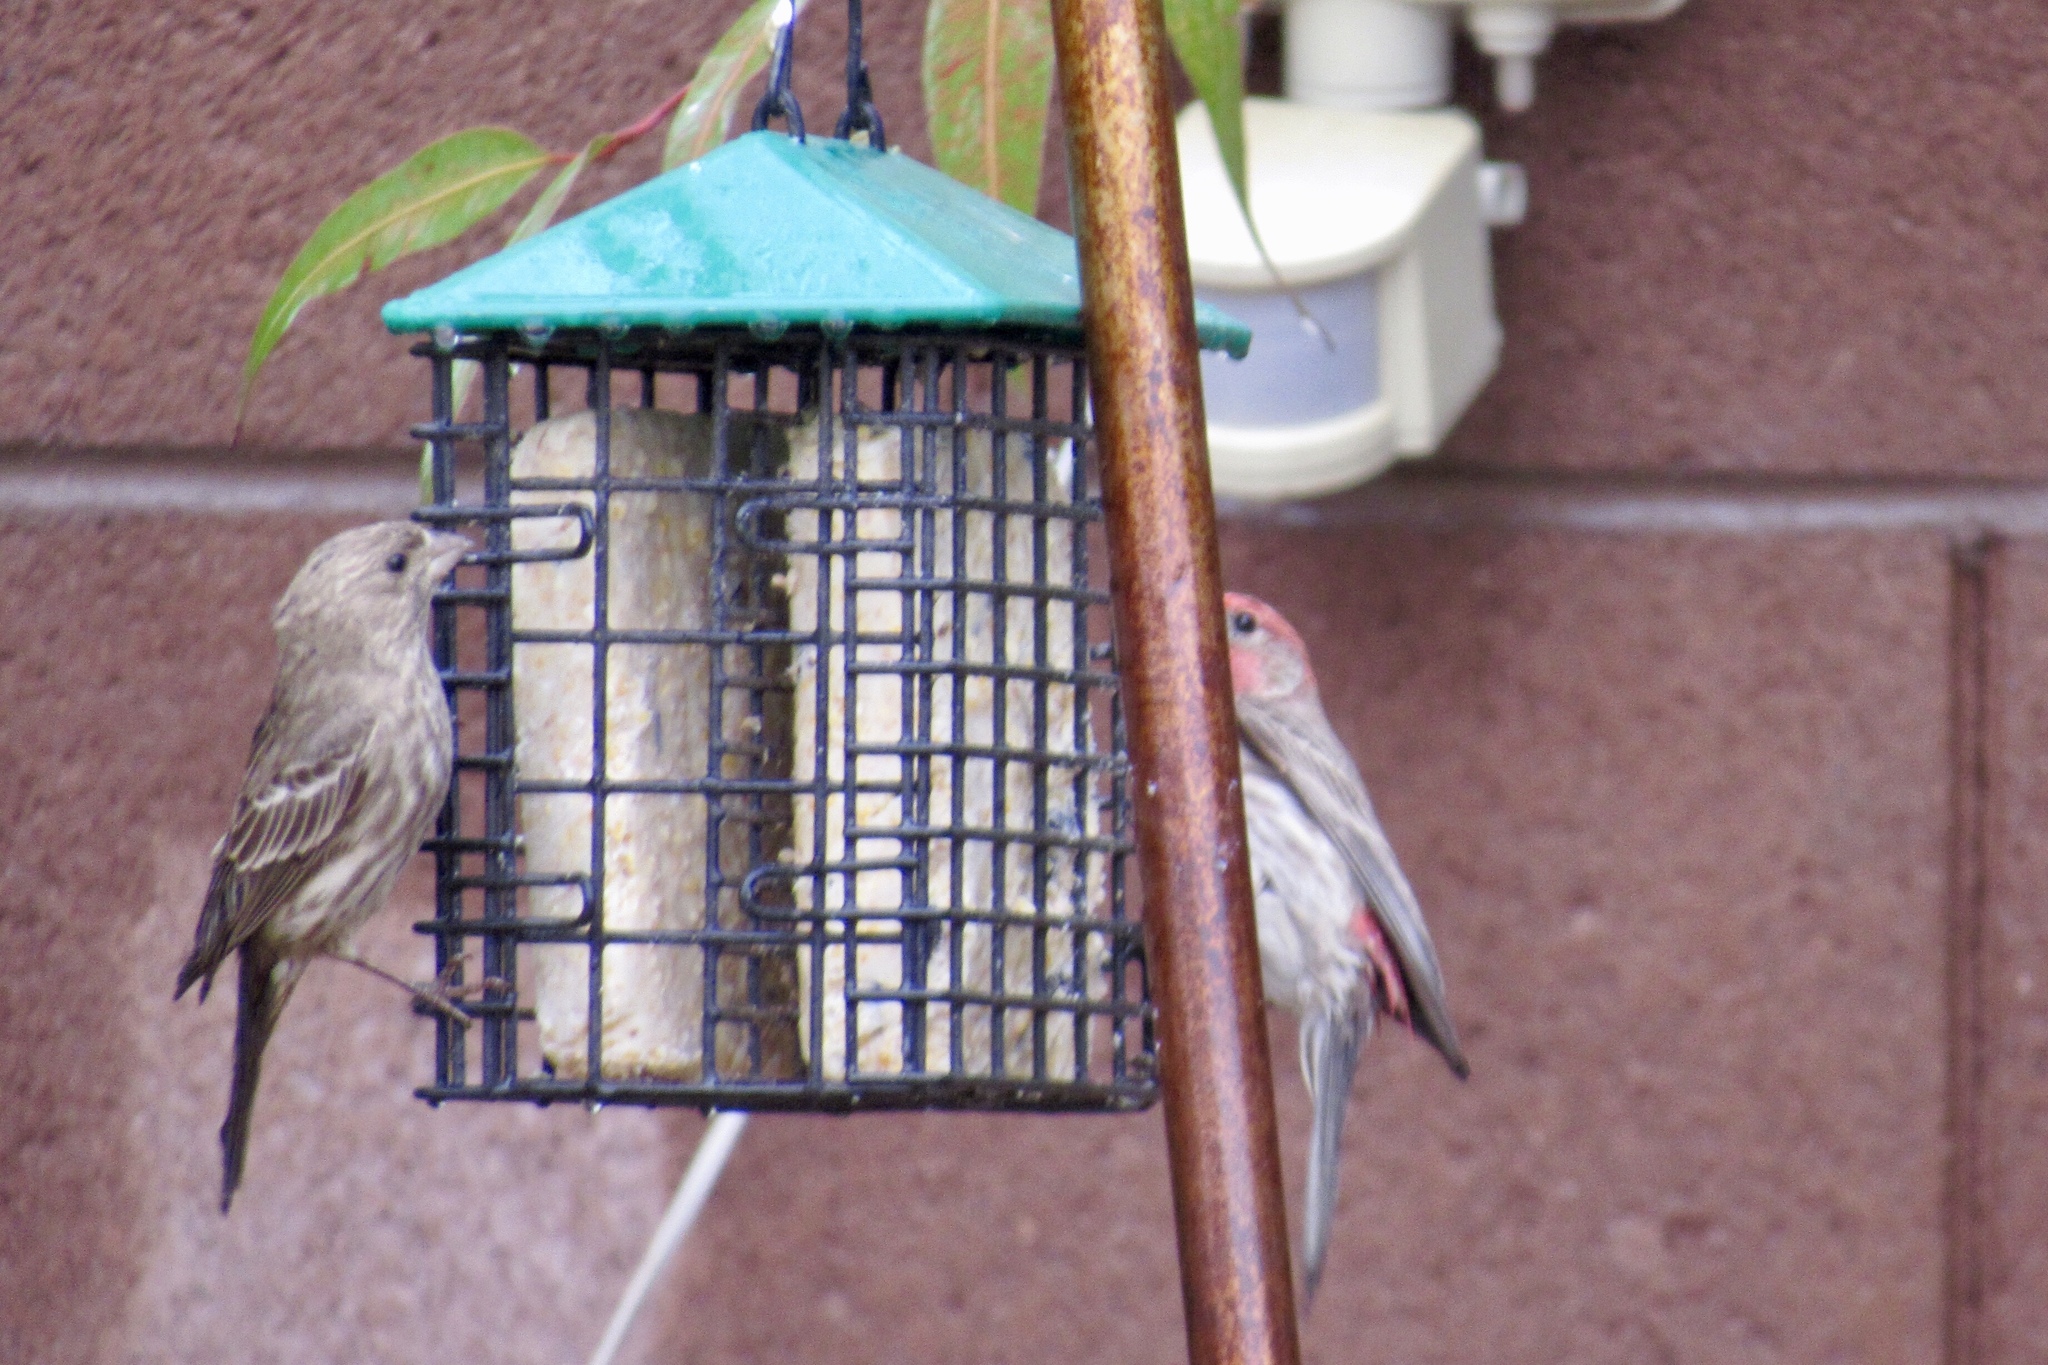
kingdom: Animalia
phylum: Chordata
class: Aves
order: Passeriformes
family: Fringillidae
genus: Haemorhous
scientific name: Haemorhous mexicanus
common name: House finch
